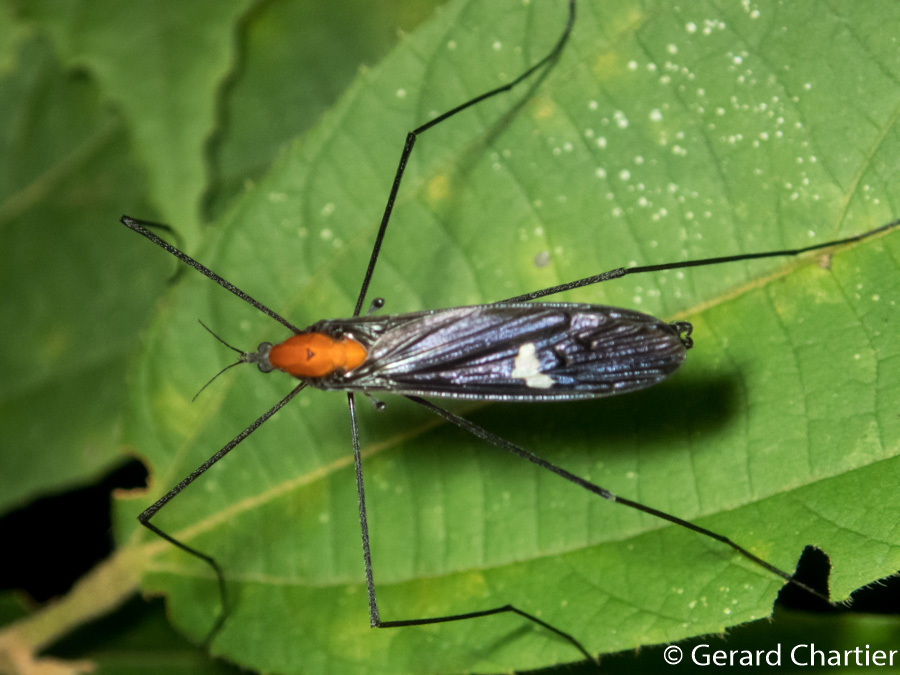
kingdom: Animalia
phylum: Arthropoda
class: Insecta
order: Diptera
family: Limoniidae
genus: Hexatoma
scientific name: Hexatoma fenestrata
